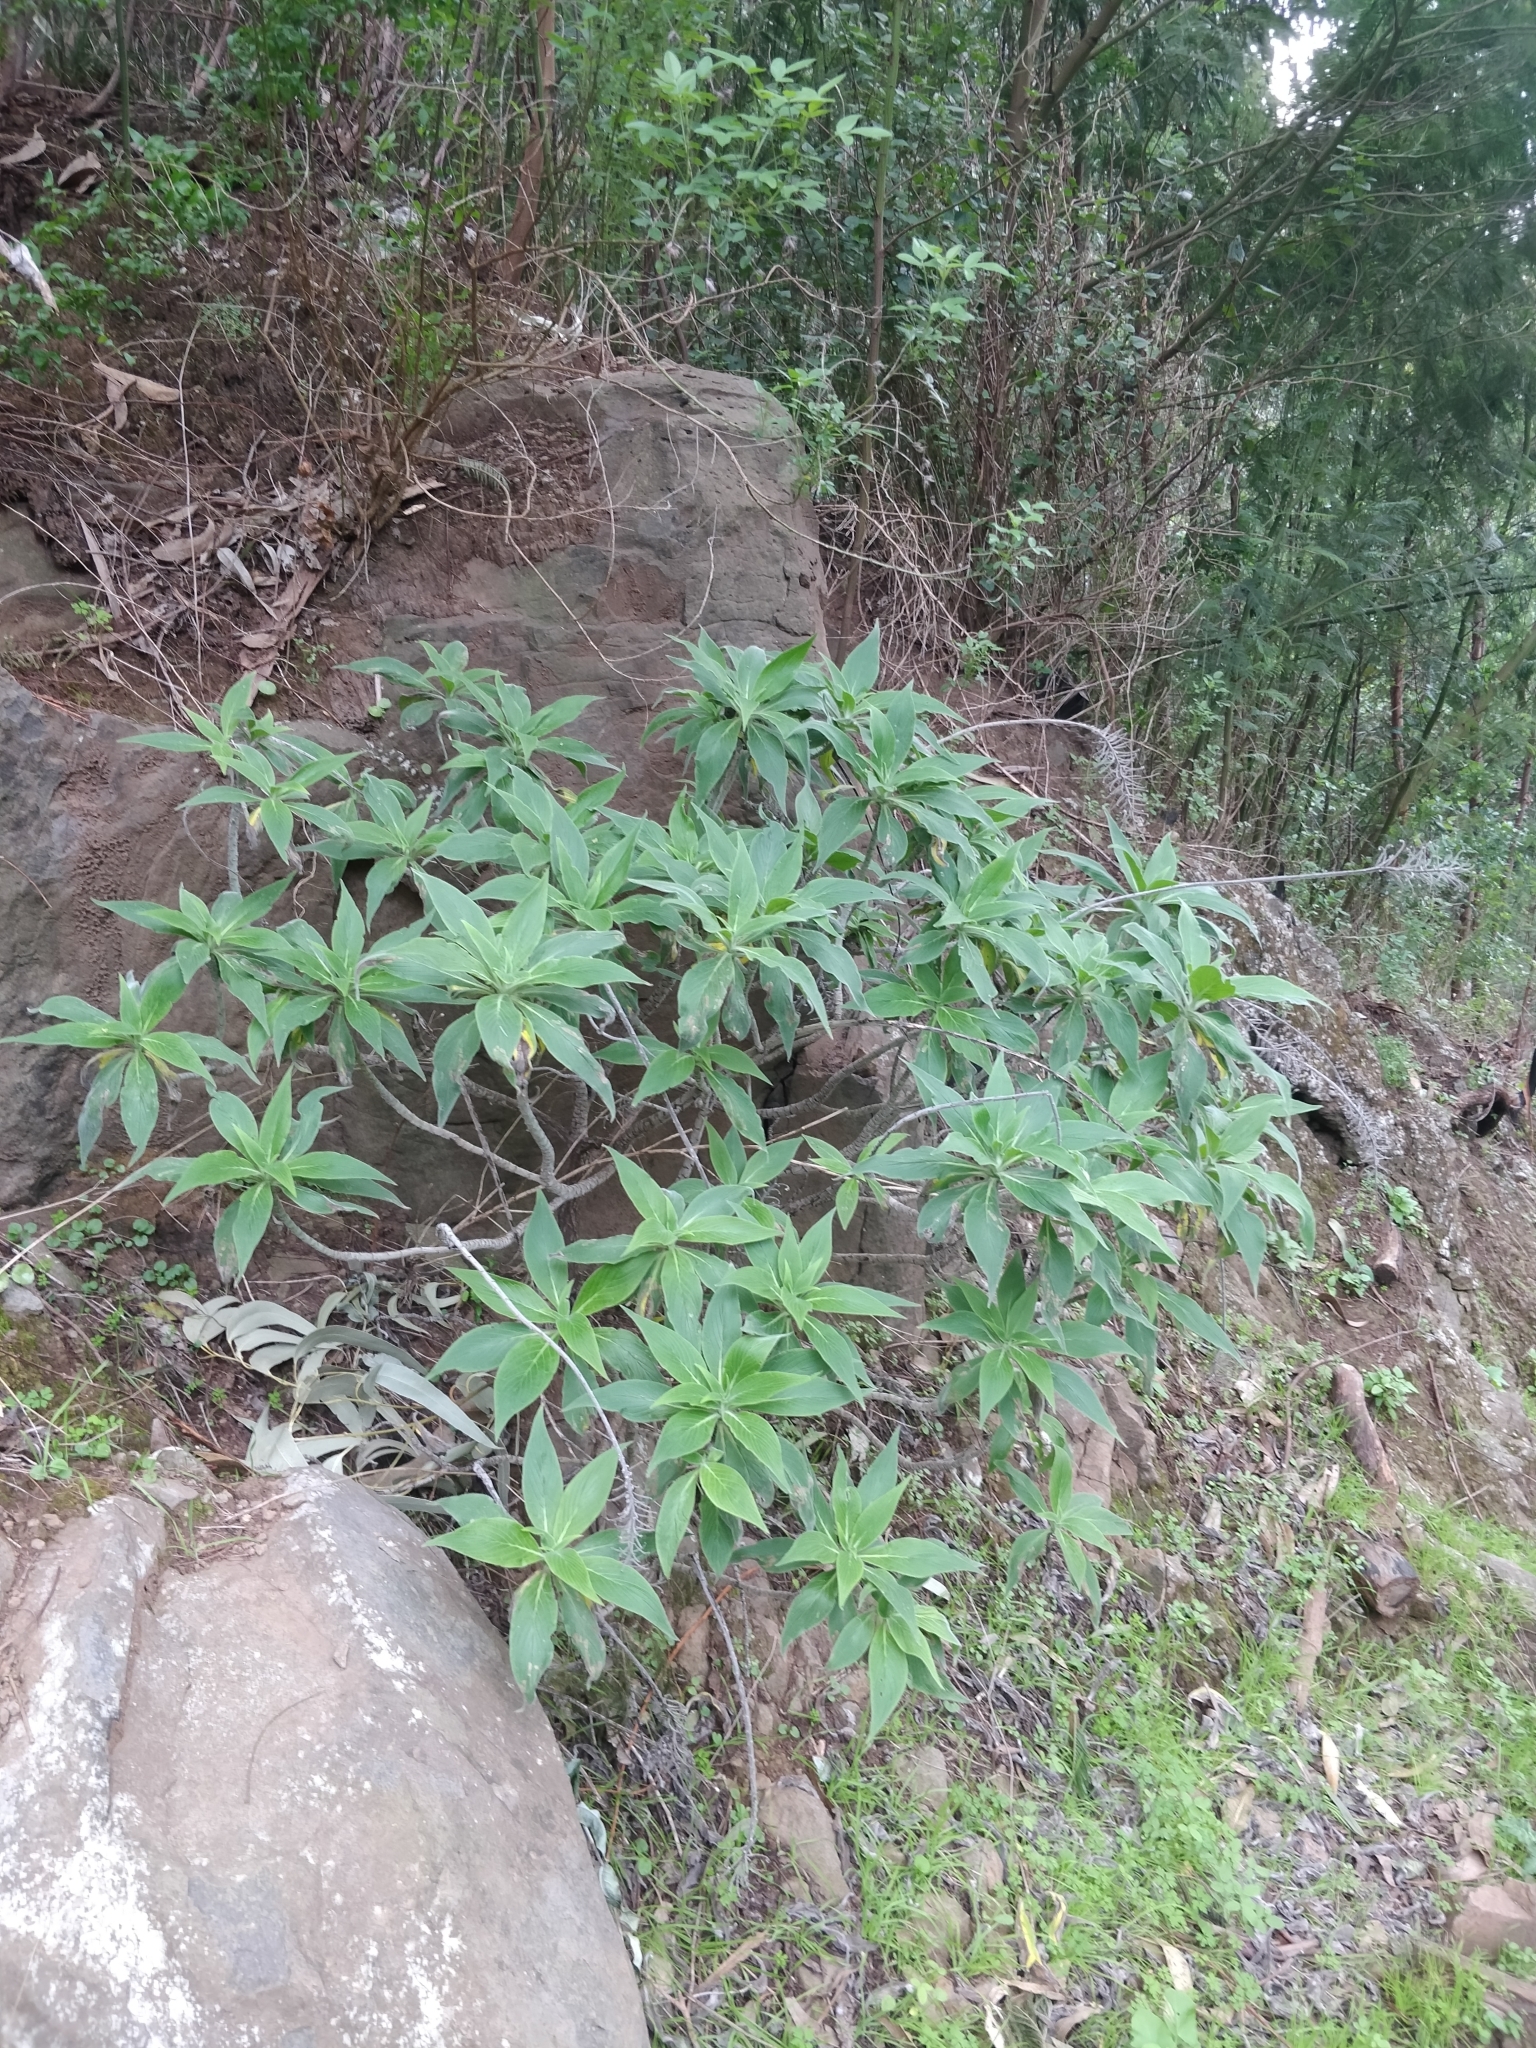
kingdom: Plantae
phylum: Tracheophyta
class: Magnoliopsida
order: Boraginales
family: Boraginaceae
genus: Echium
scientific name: Echium candicans
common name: Pride of madeira
